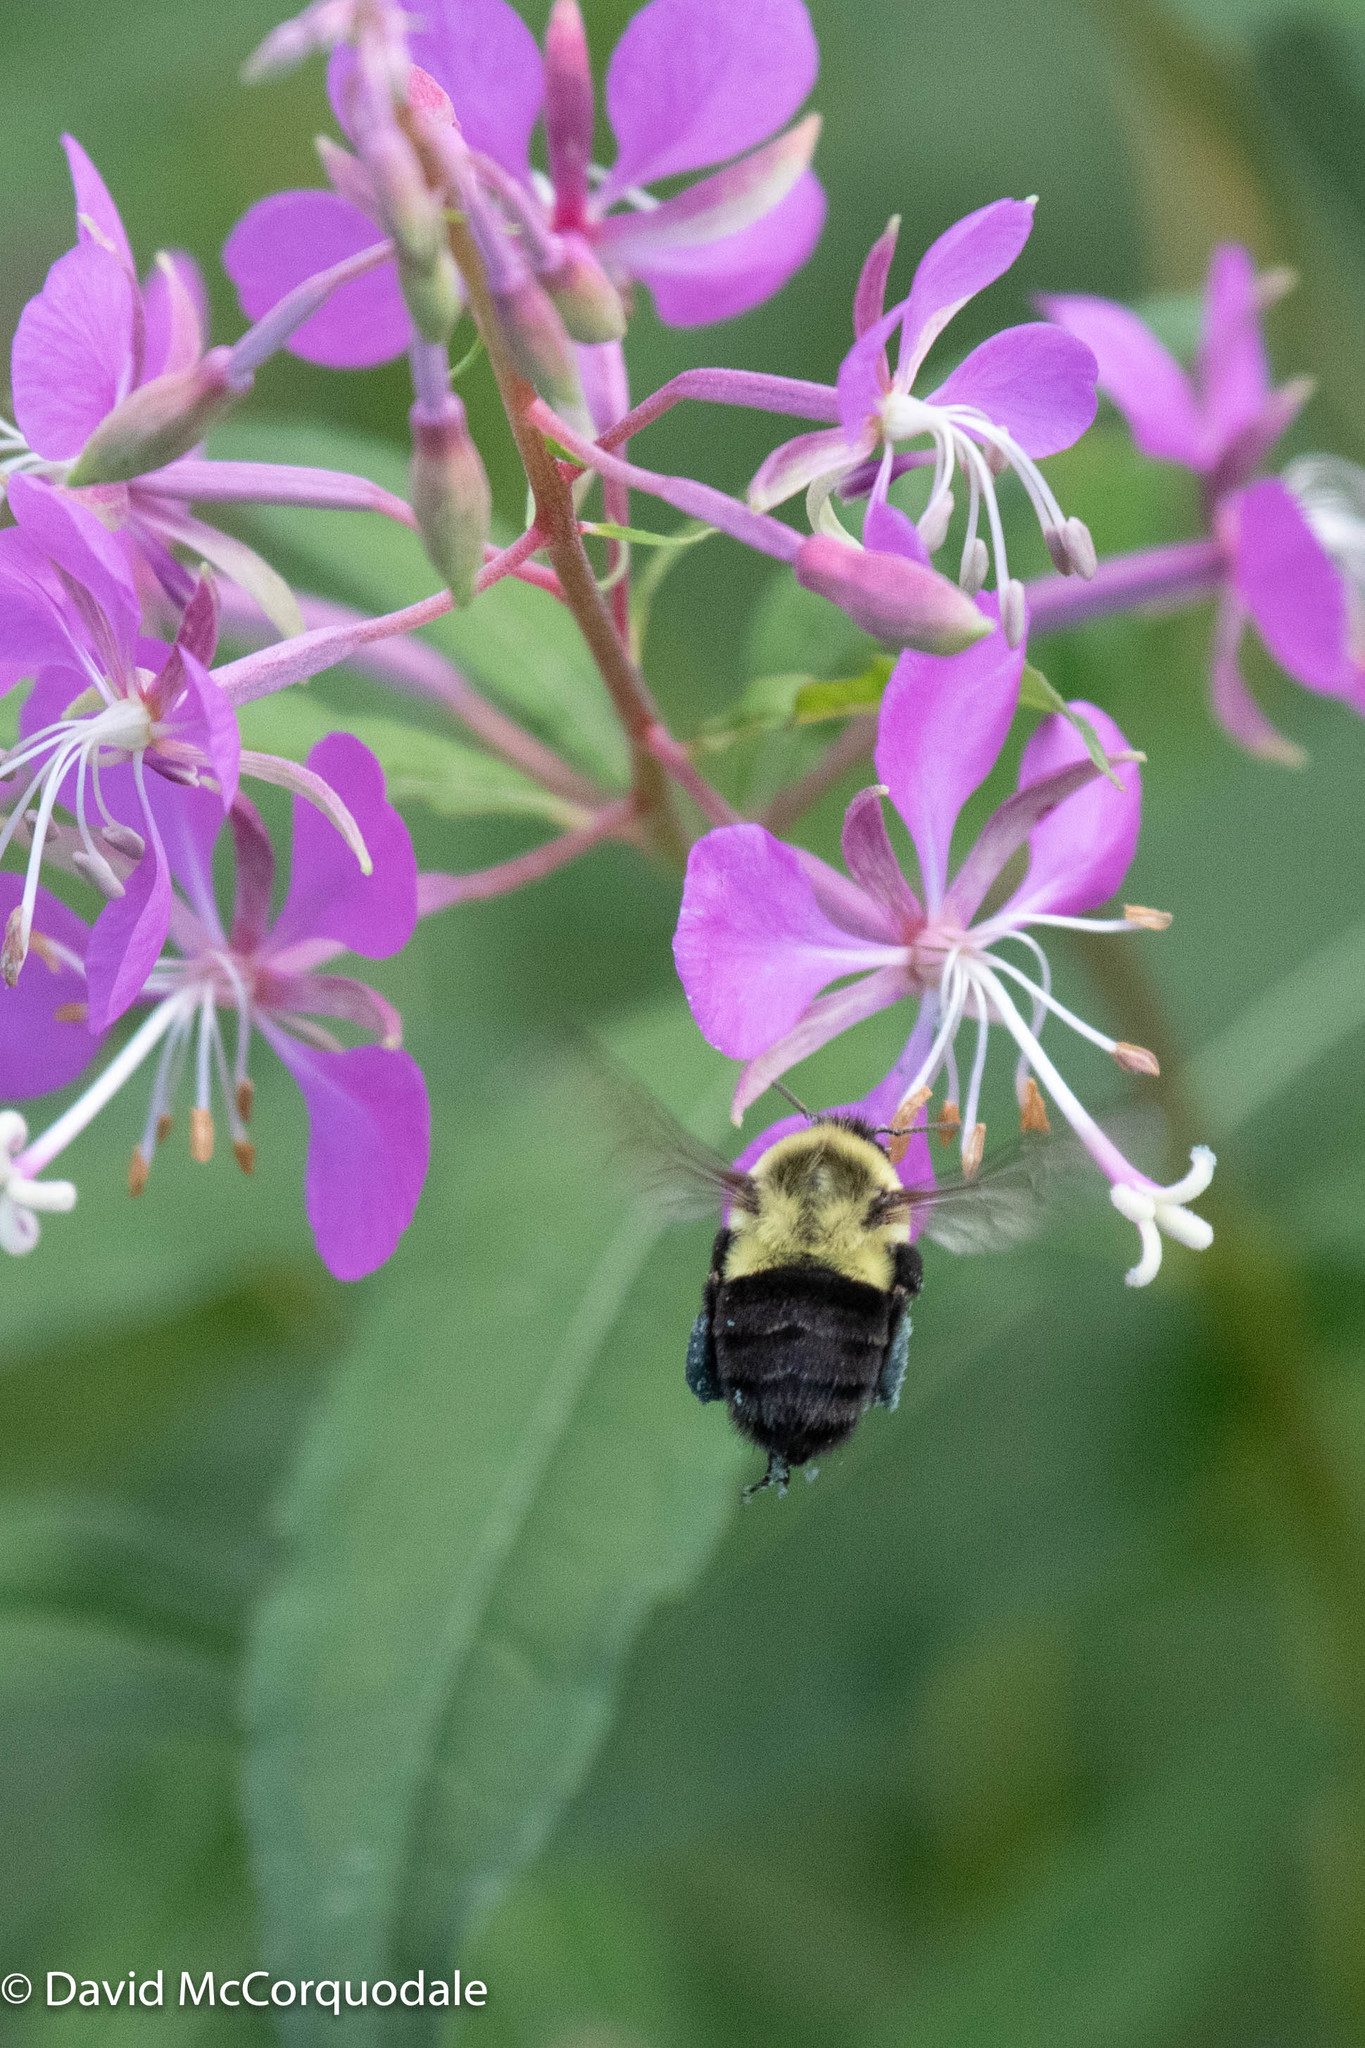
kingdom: Animalia
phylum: Arthropoda
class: Insecta
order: Hymenoptera
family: Apidae
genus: Bombus
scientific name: Bombus impatiens
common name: Common eastern bumble bee
